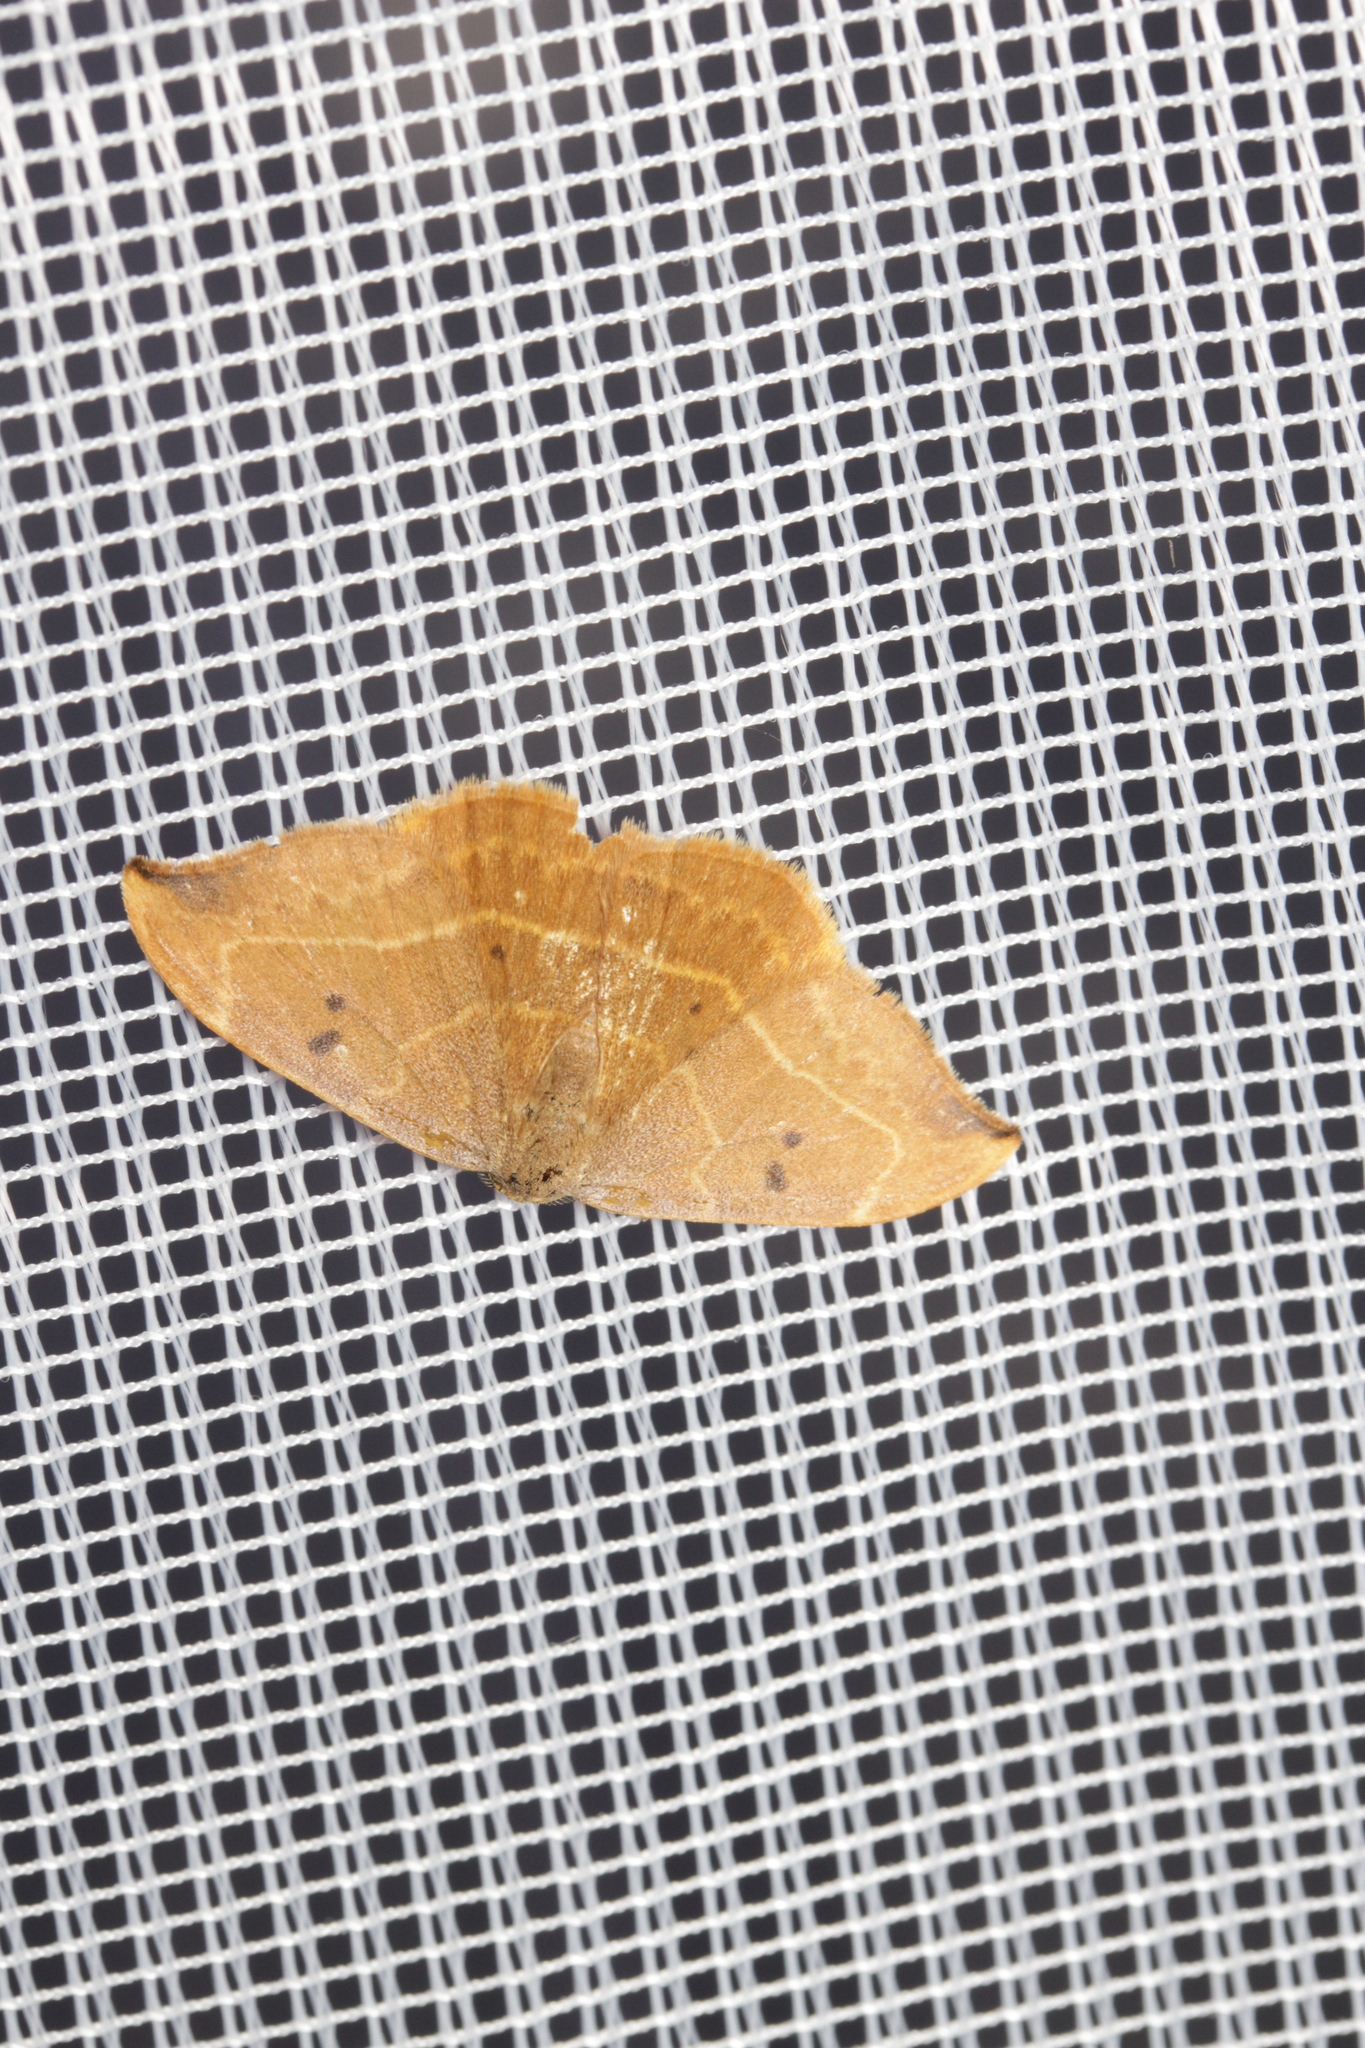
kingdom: Animalia
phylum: Arthropoda
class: Insecta
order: Lepidoptera
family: Drepanidae
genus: Watsonalla
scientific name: Watsonalla binaria
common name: Oak hook-tip
